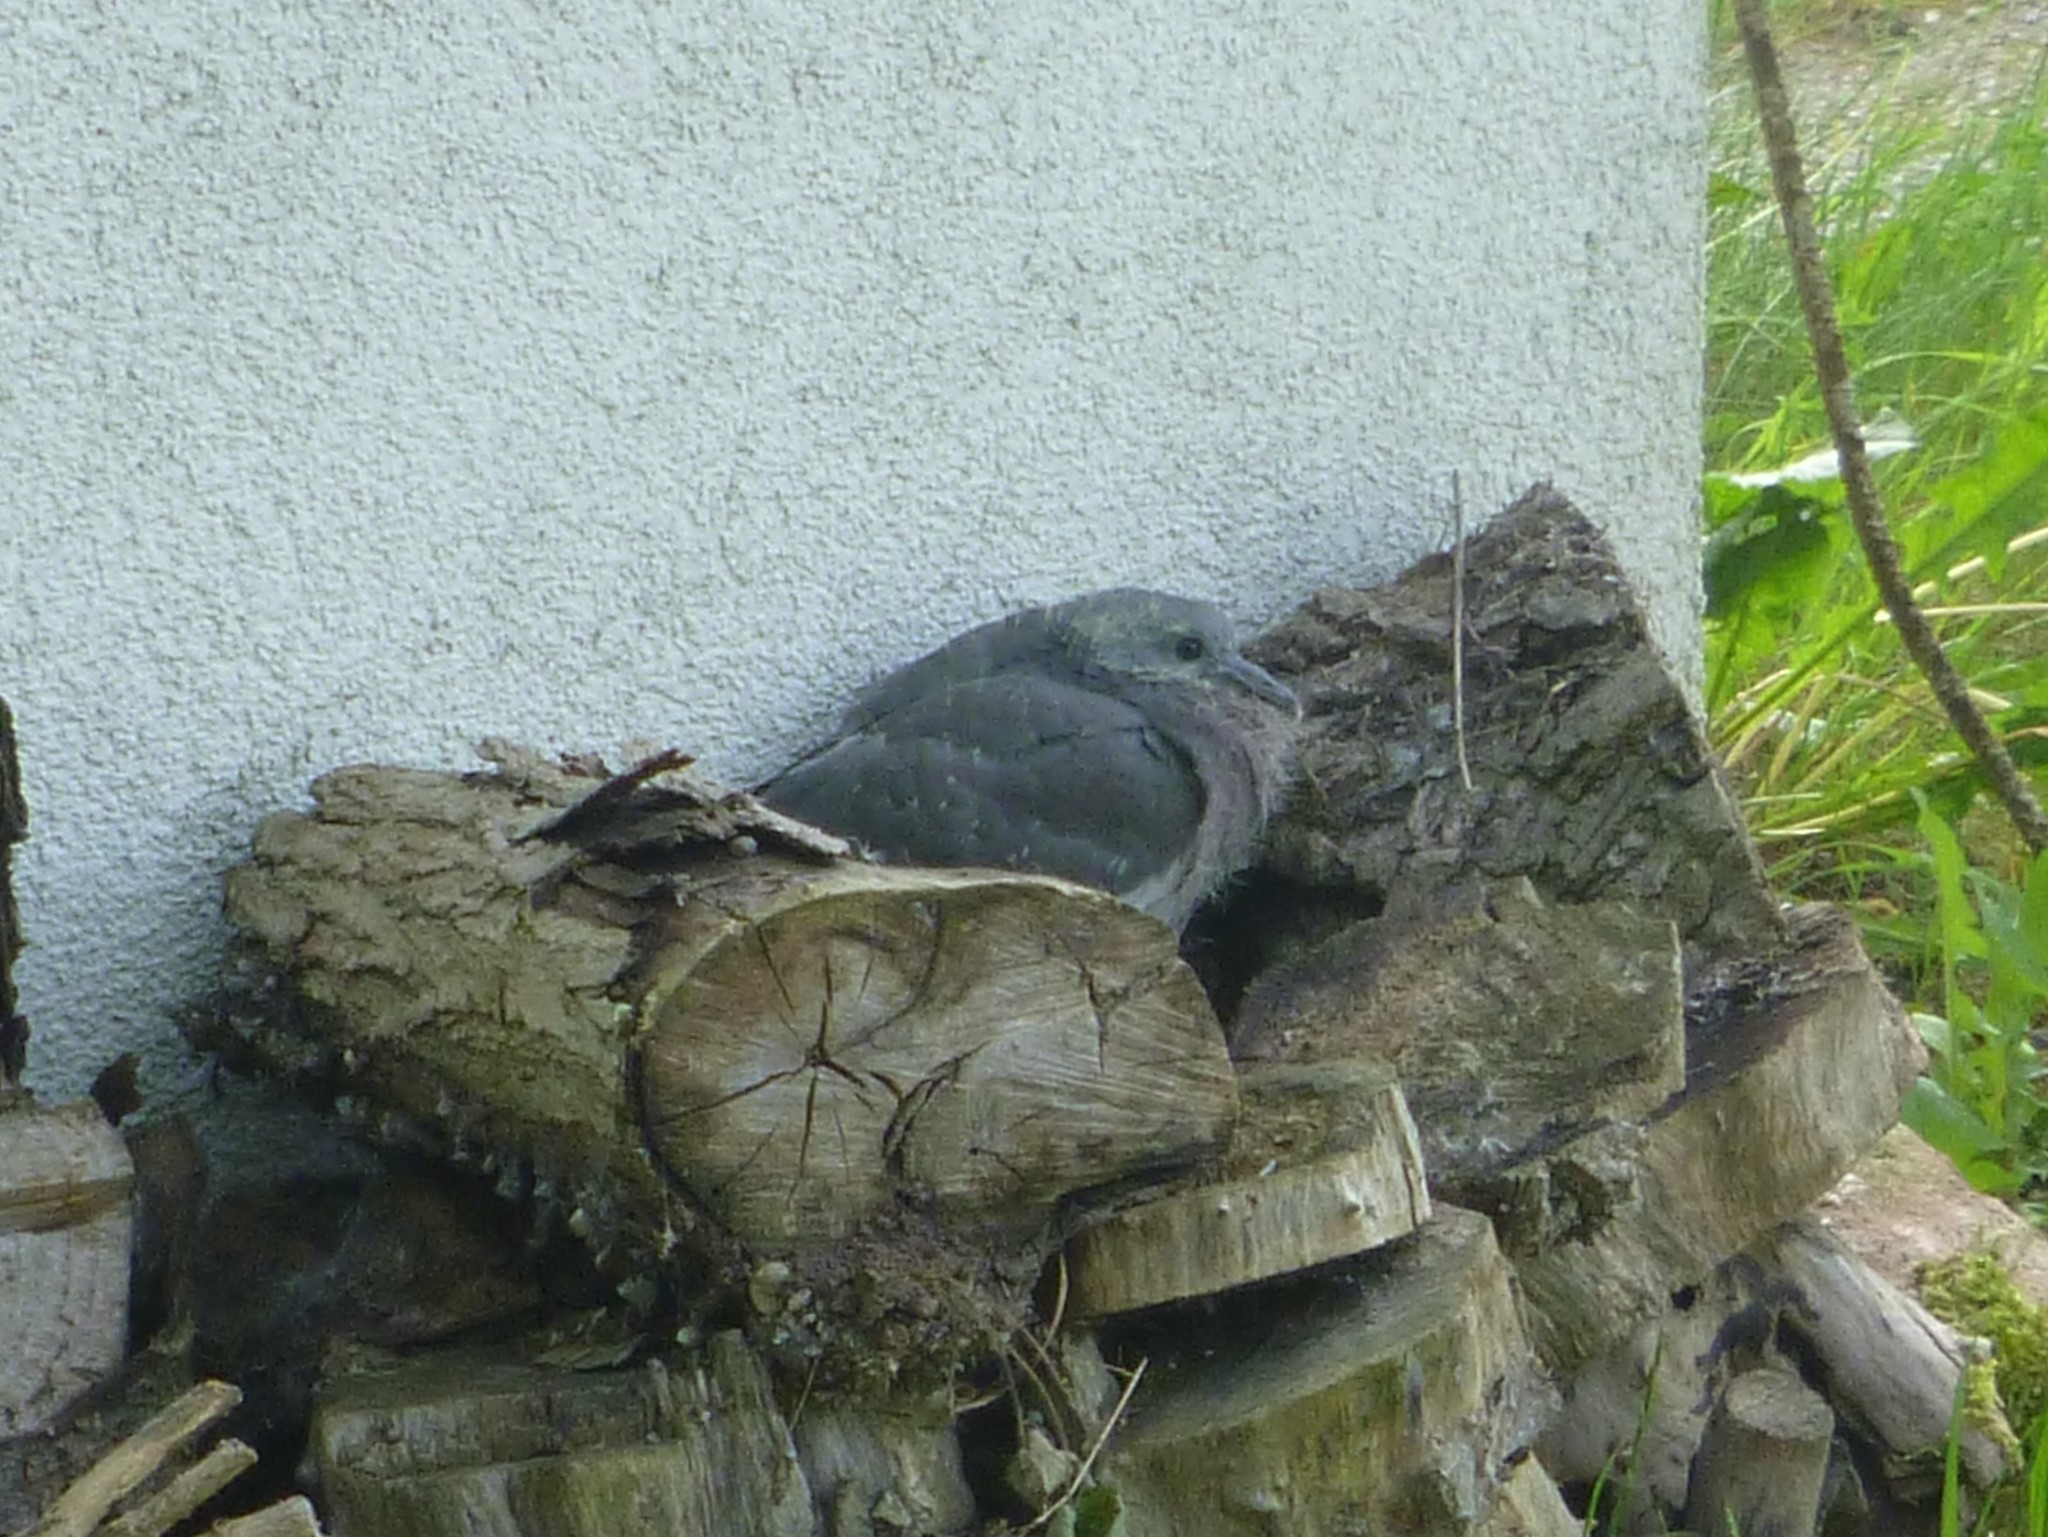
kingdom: Animalia
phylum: Chordata
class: Aves
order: Columbiformes
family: Columbidae
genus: Columba
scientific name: Columba palumbus
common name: Common wood pigeon
